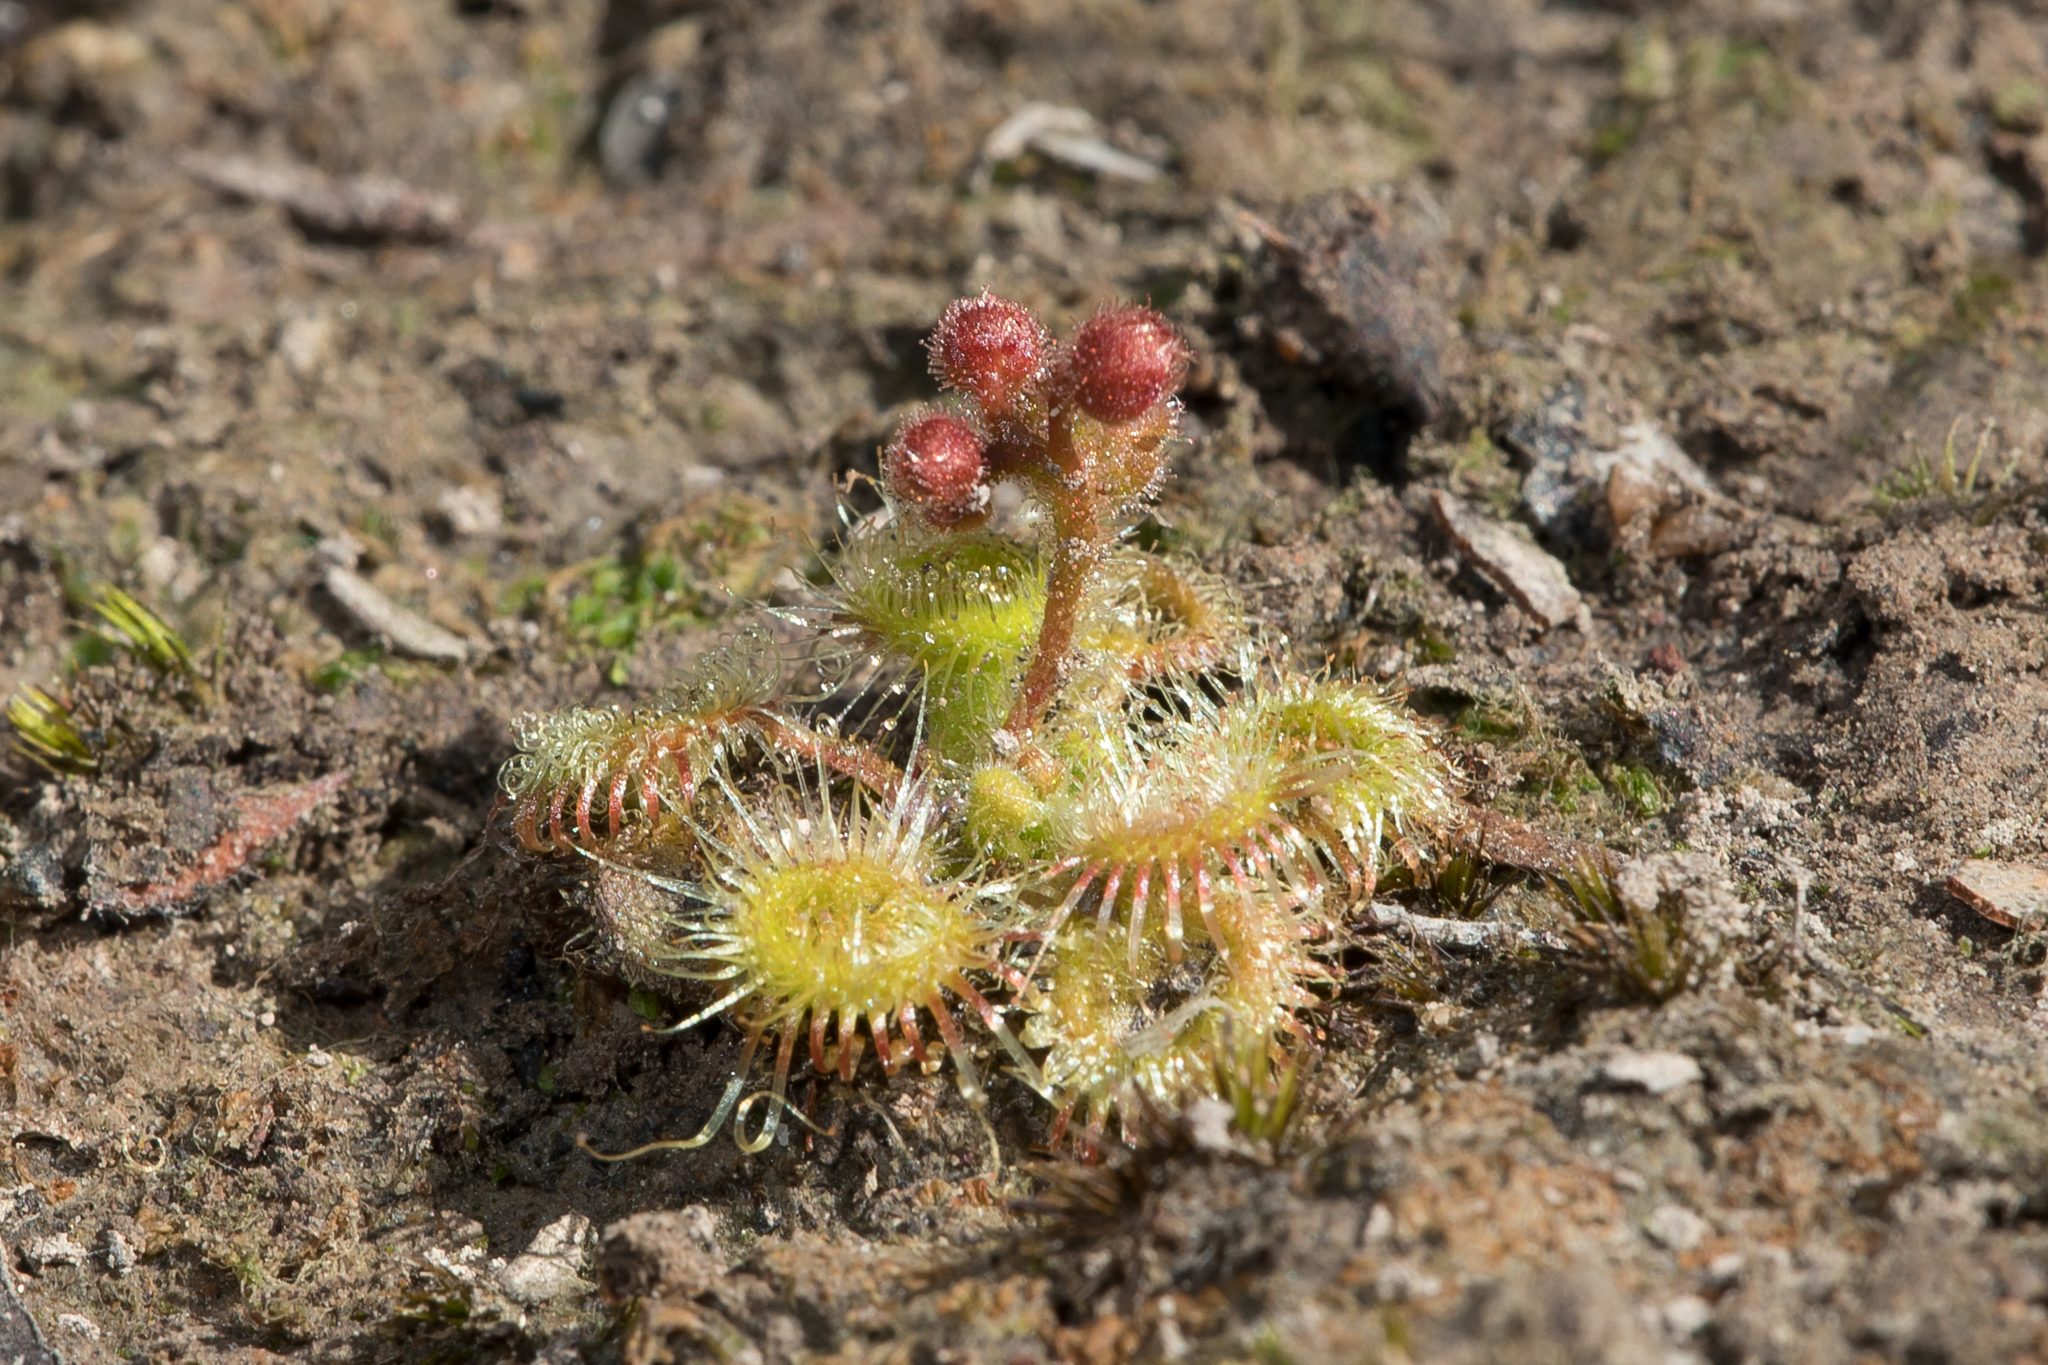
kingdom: Plantae
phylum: Tracheophyta
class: Magnoliopsida
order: Caryophyllales
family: Droseraceae
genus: Drosera
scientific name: Drosera glanduligera
